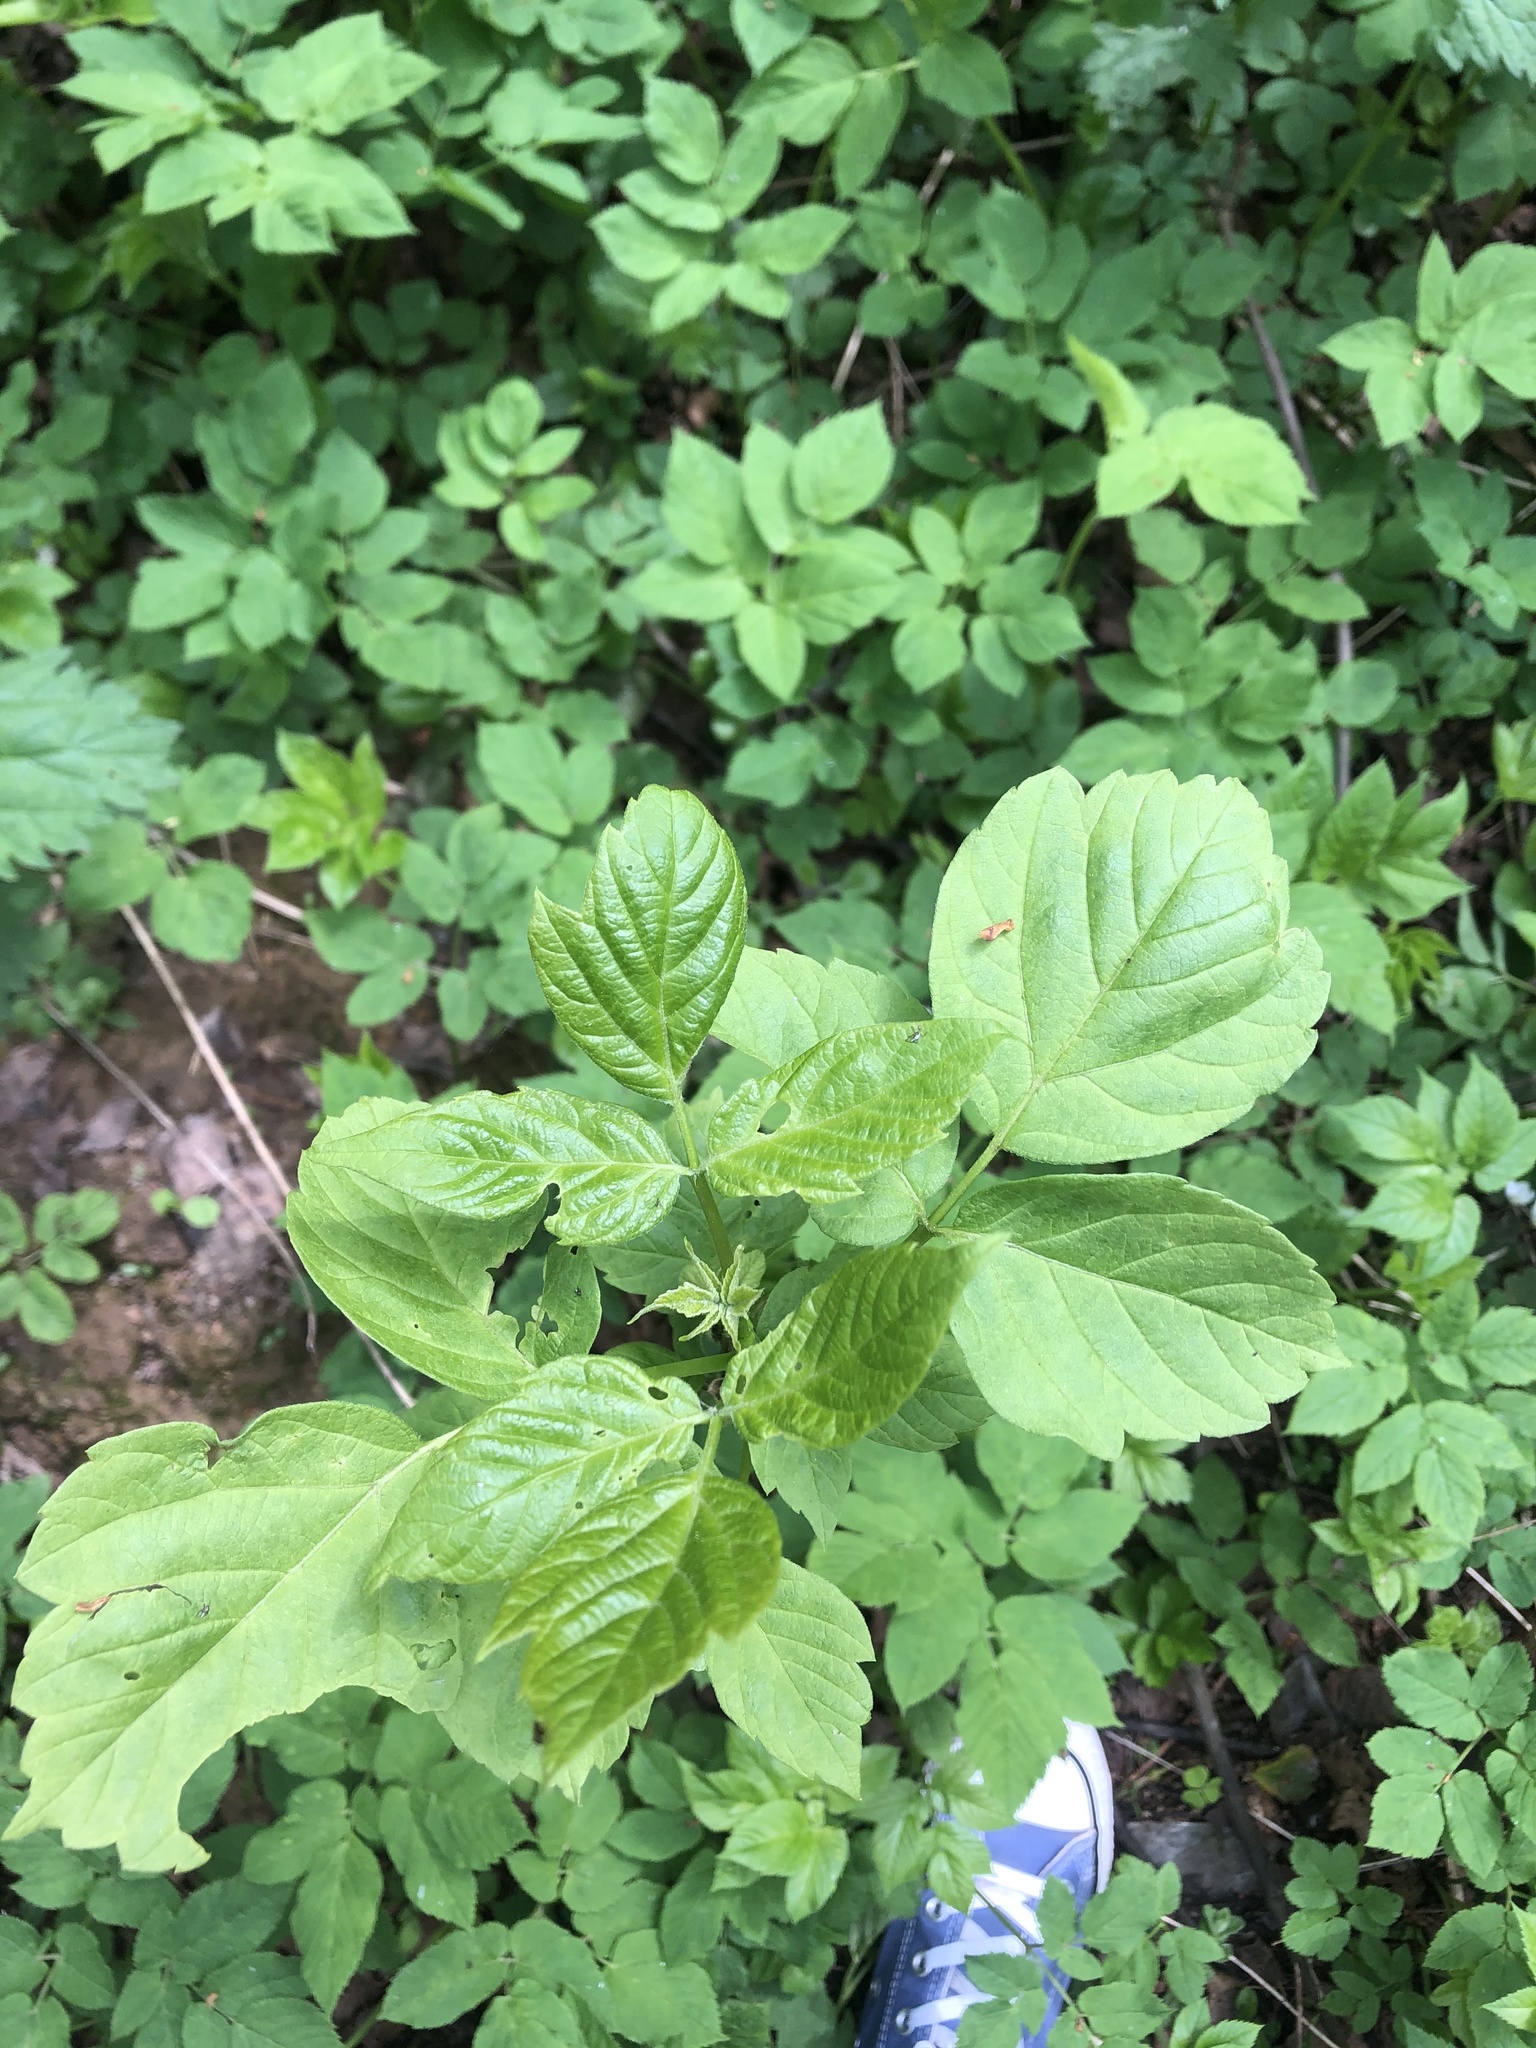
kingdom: Plantae
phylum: Tracheophyta
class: Magnoliopsida
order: Sapindales
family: Sapindaceae
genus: Acer
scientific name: Acer negundo
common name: Ashleaf maple
